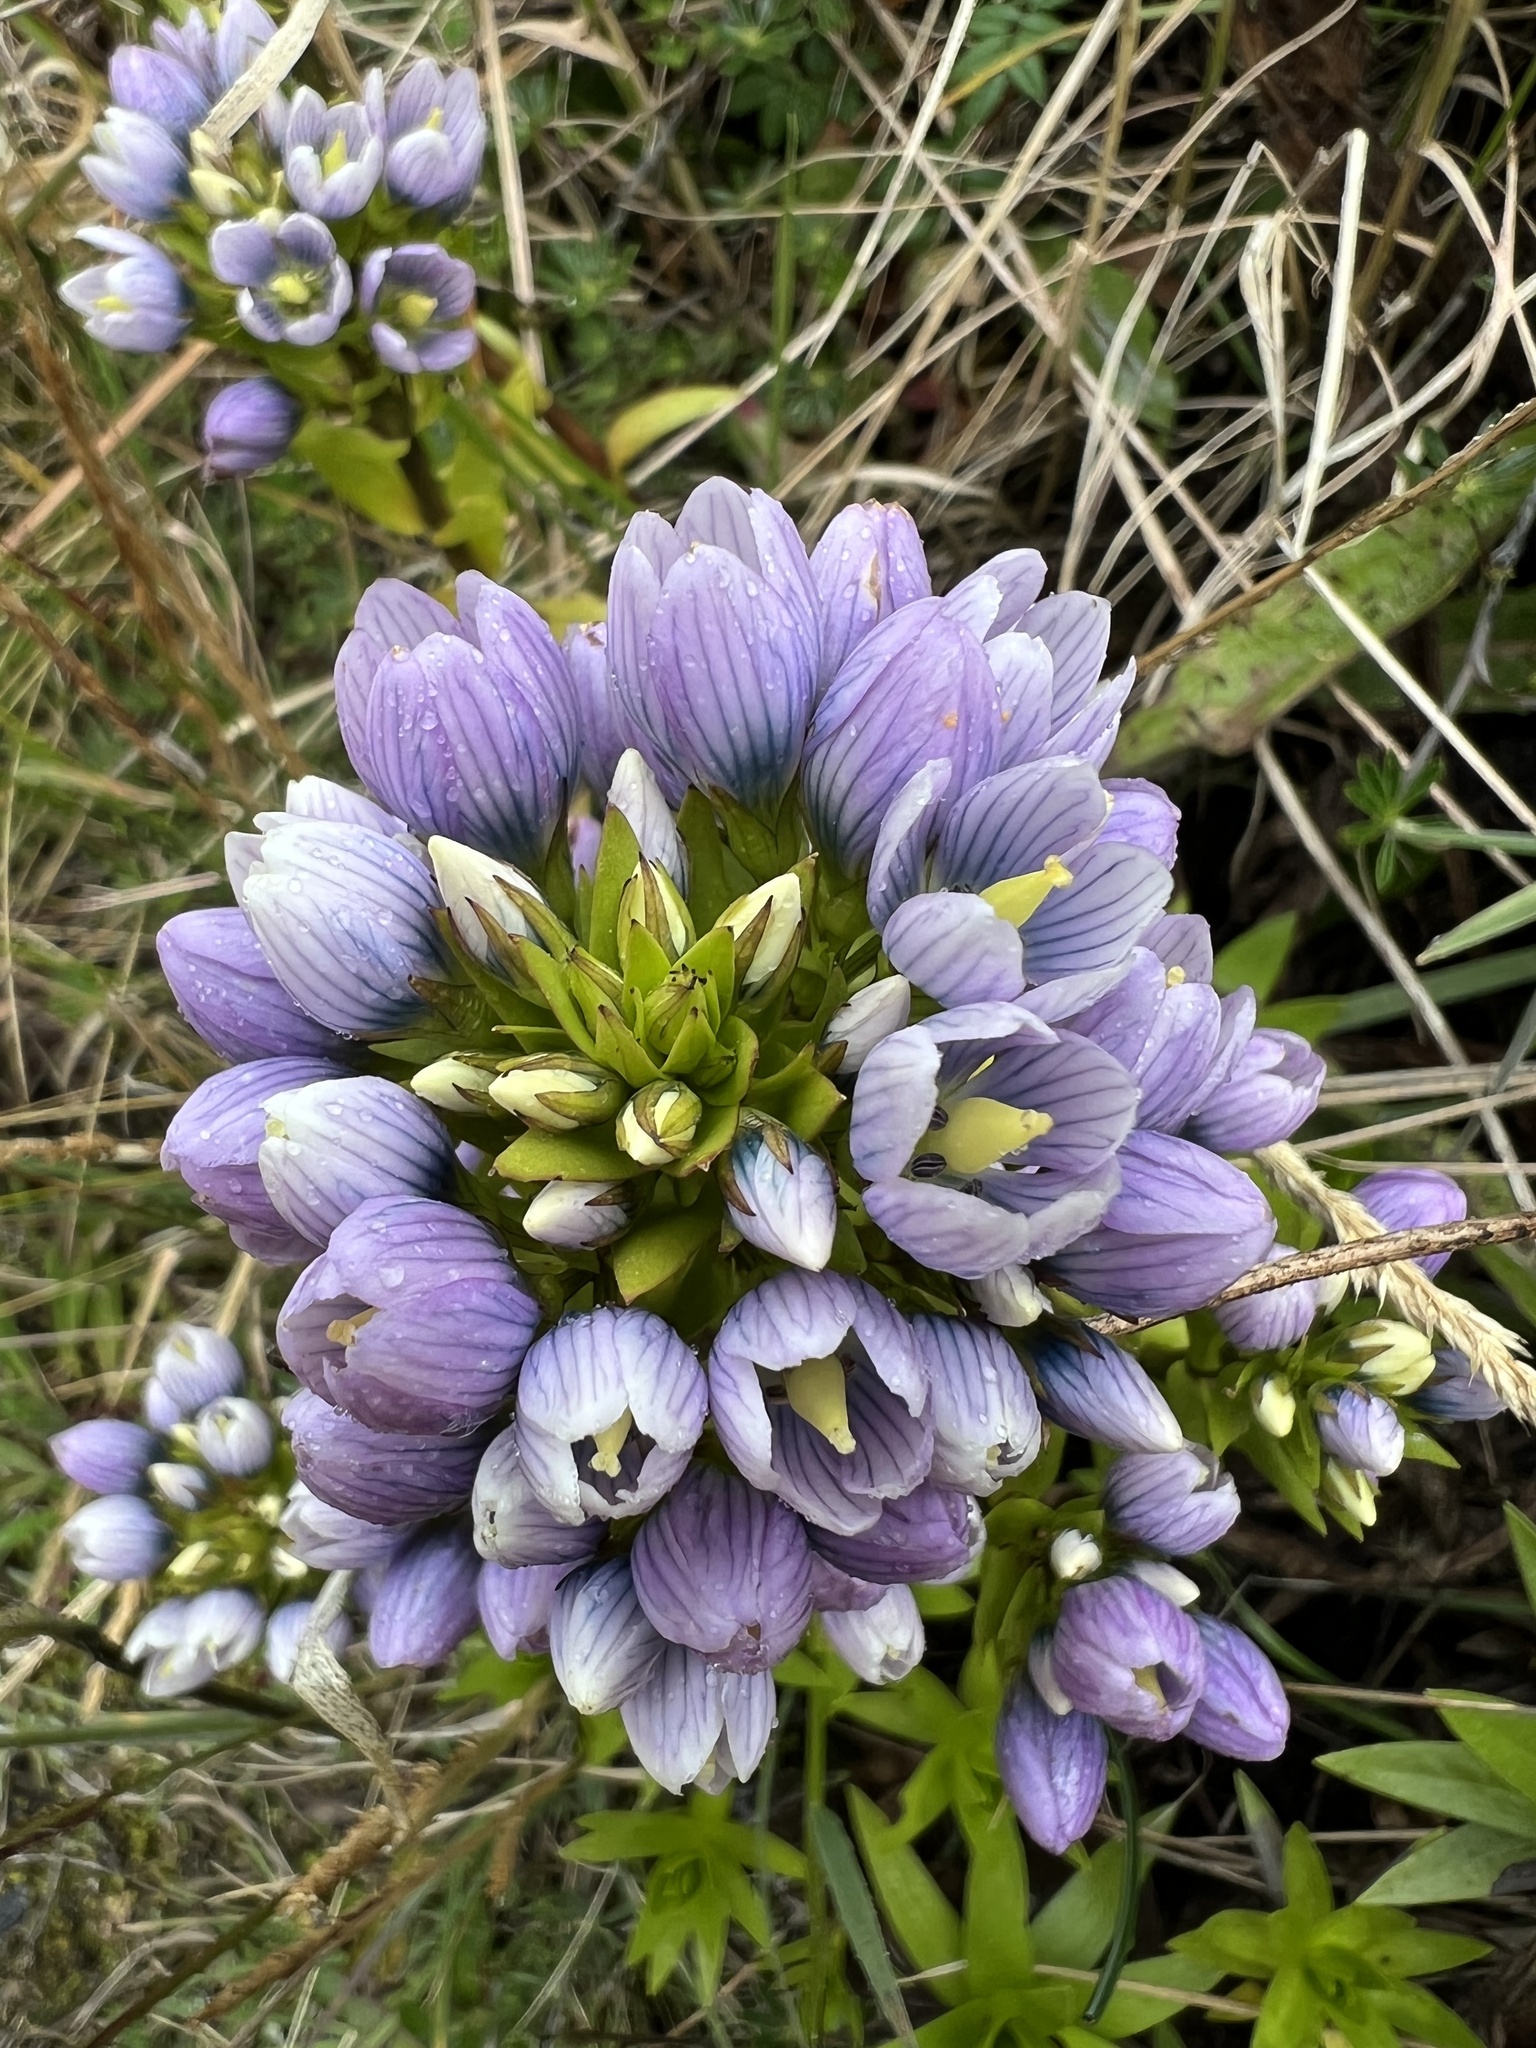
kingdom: Plantae
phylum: Tracheophyta
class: Magnoliopsida
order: Gentianales
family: Gentianaceae
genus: Gentianella
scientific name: Gentianella selaginifolia
